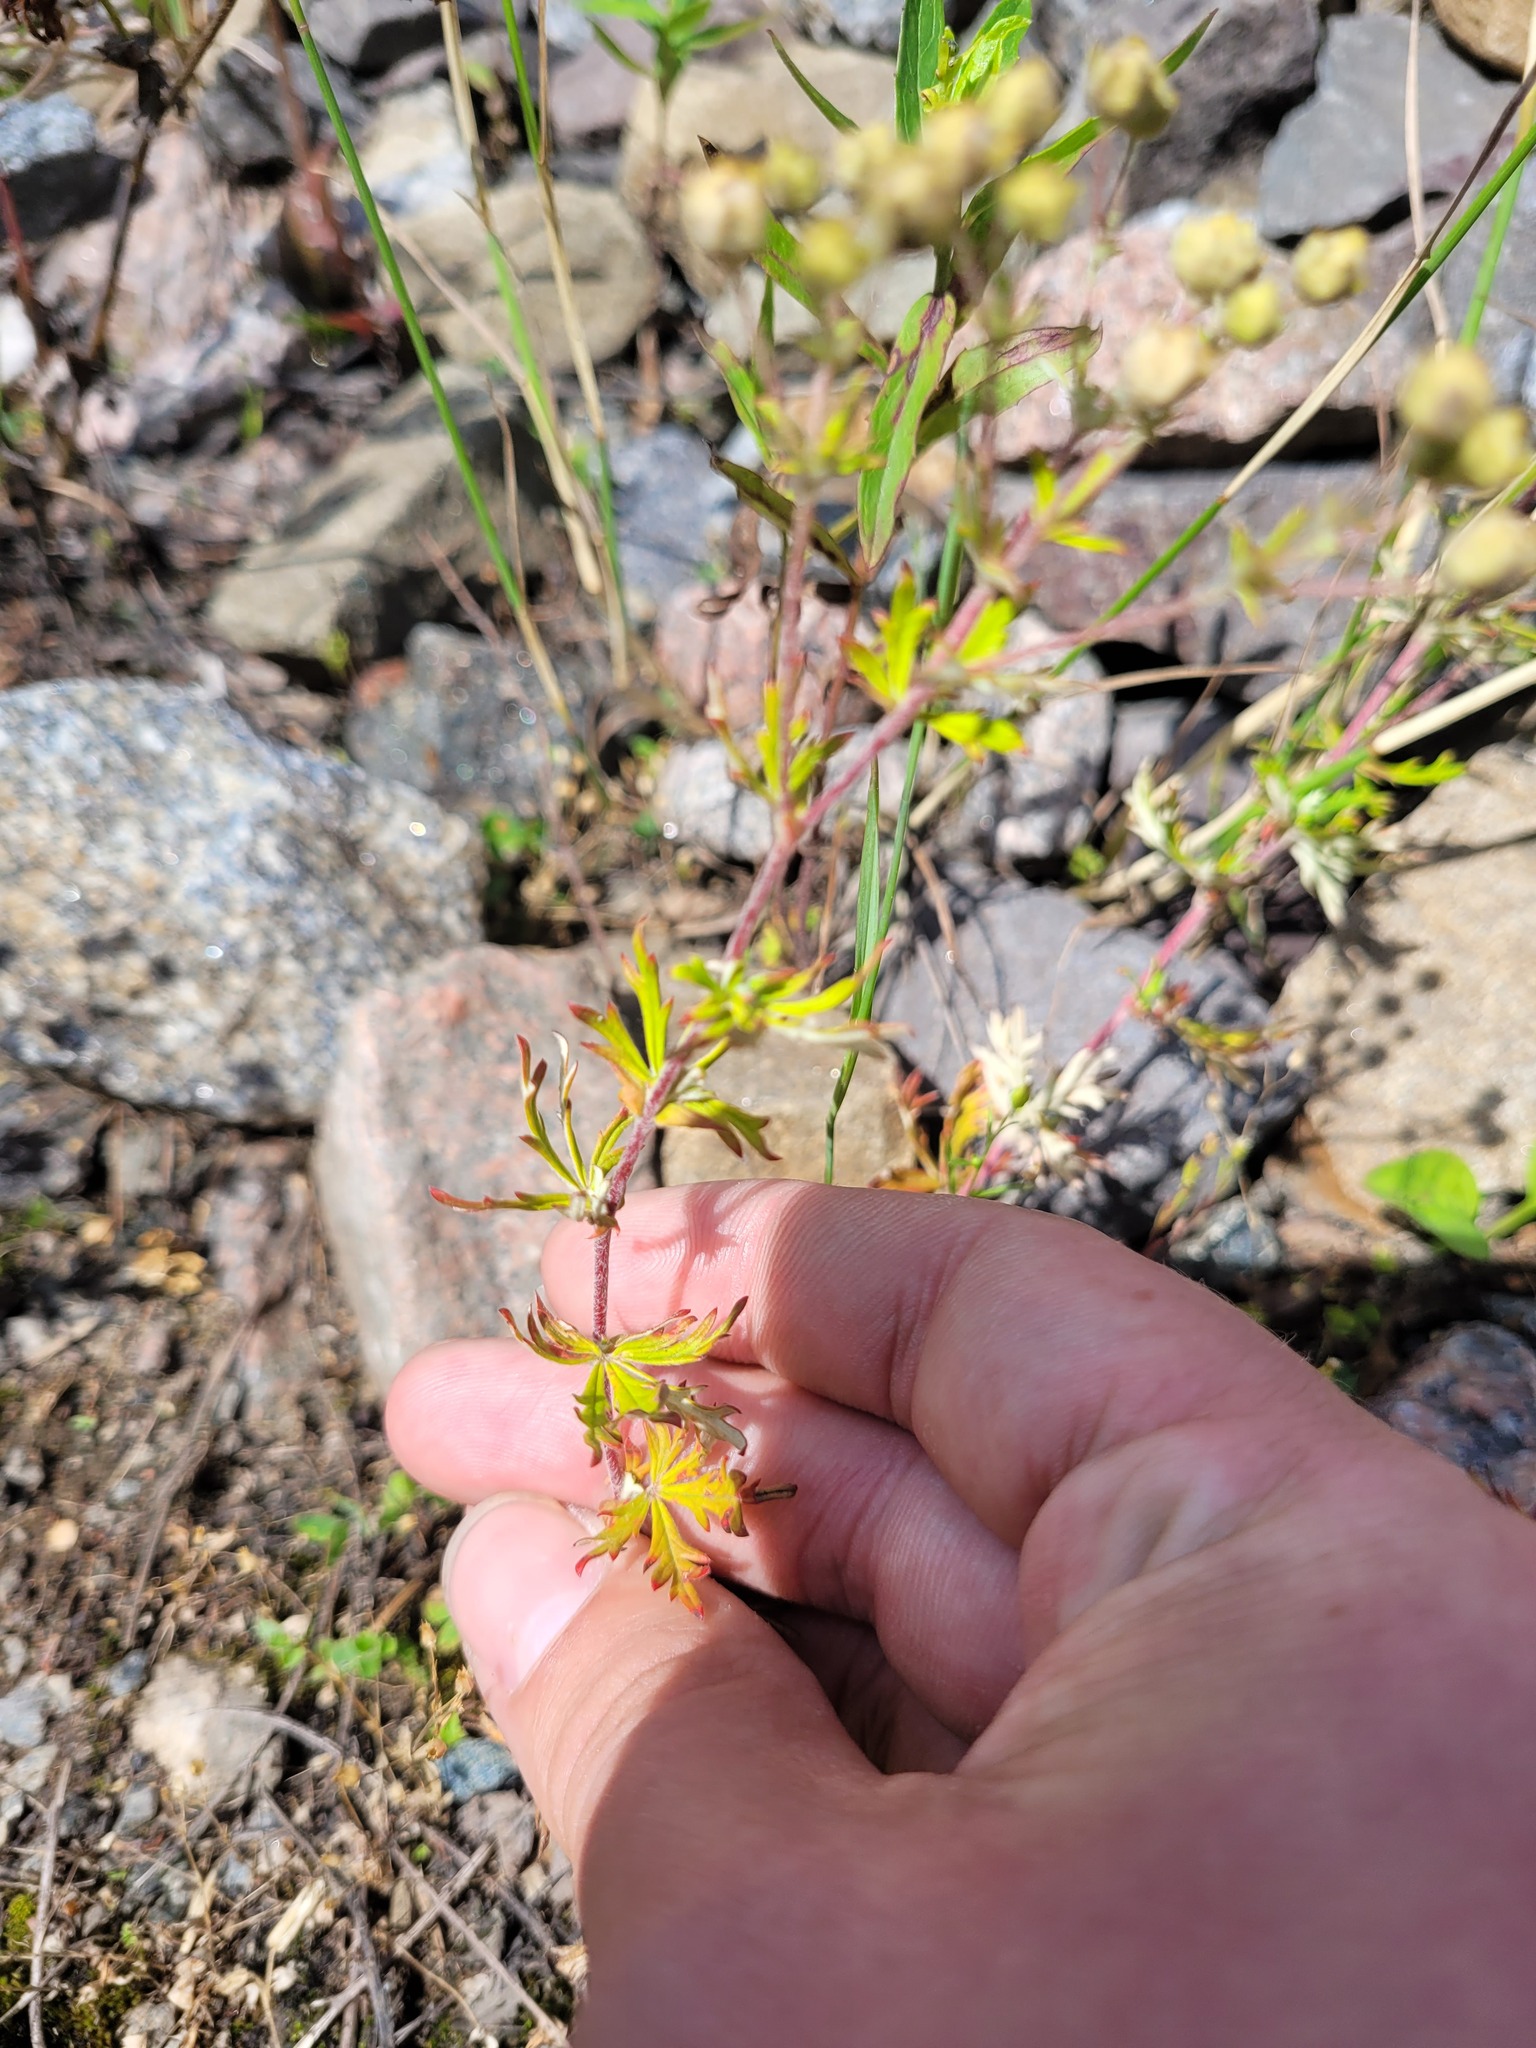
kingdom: Plantae
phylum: Tracheophyta
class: Magnoliopsida
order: Rosales
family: Rosaceae
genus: Potentilla
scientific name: Potentilla argentea
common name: Hoary cinquefoil
